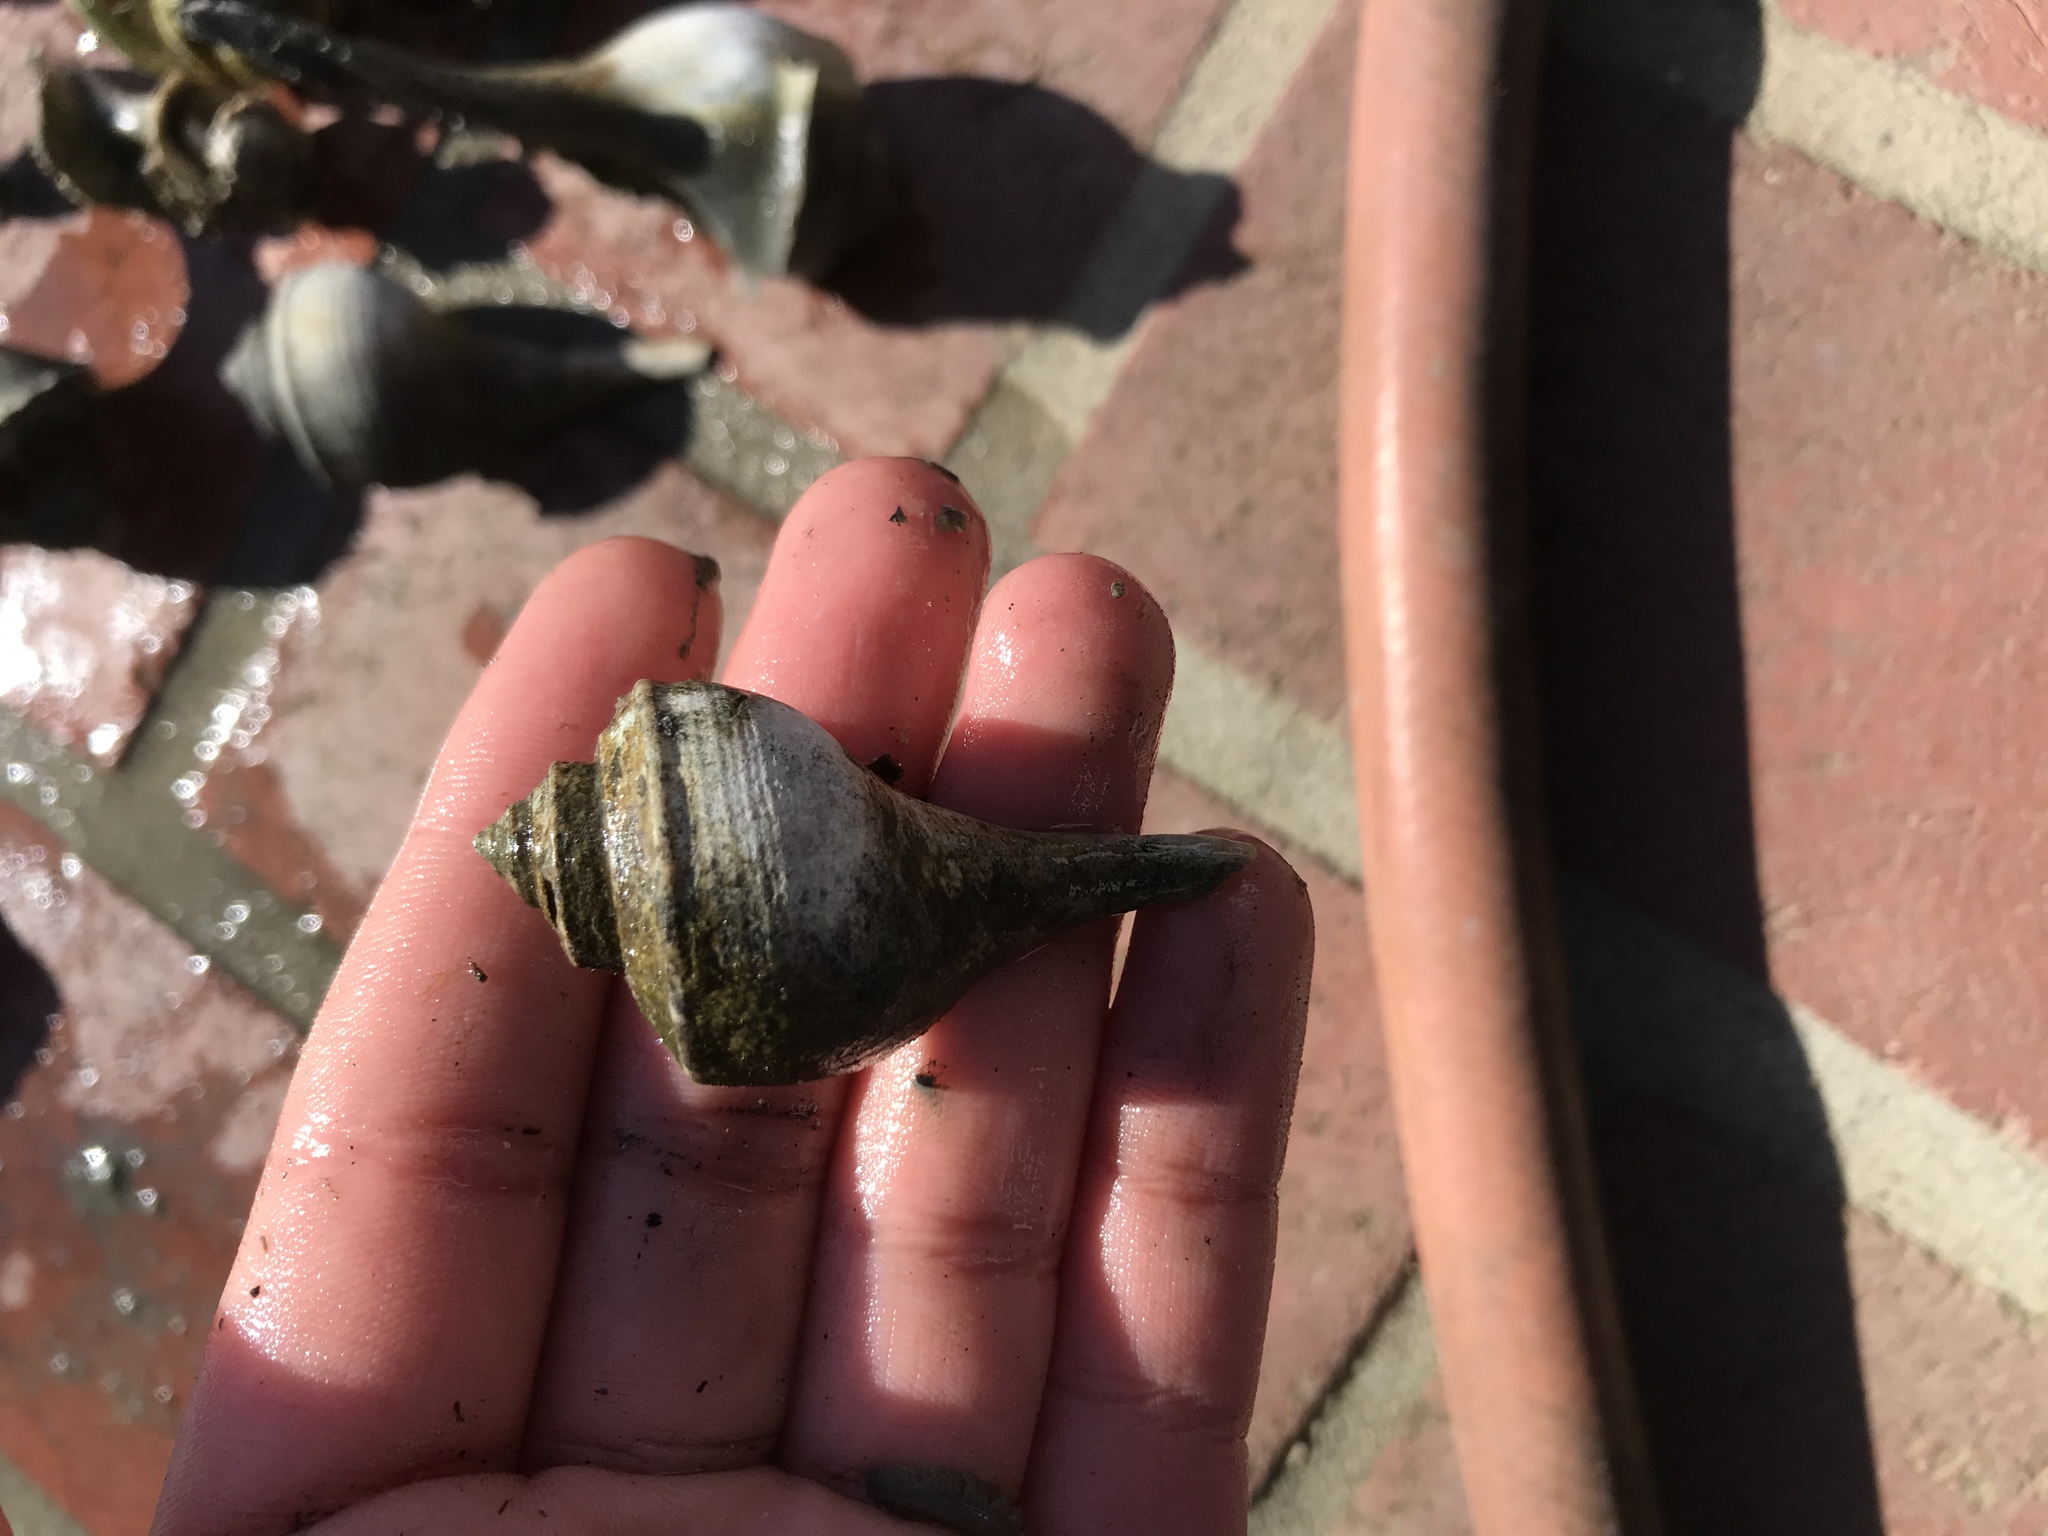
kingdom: Animalia
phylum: Mollusca
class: Gastropoda
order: Neogastropoda
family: Busyconidae
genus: Busycotypus
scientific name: Busycotypus canaliculatus
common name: Channeled whelk
